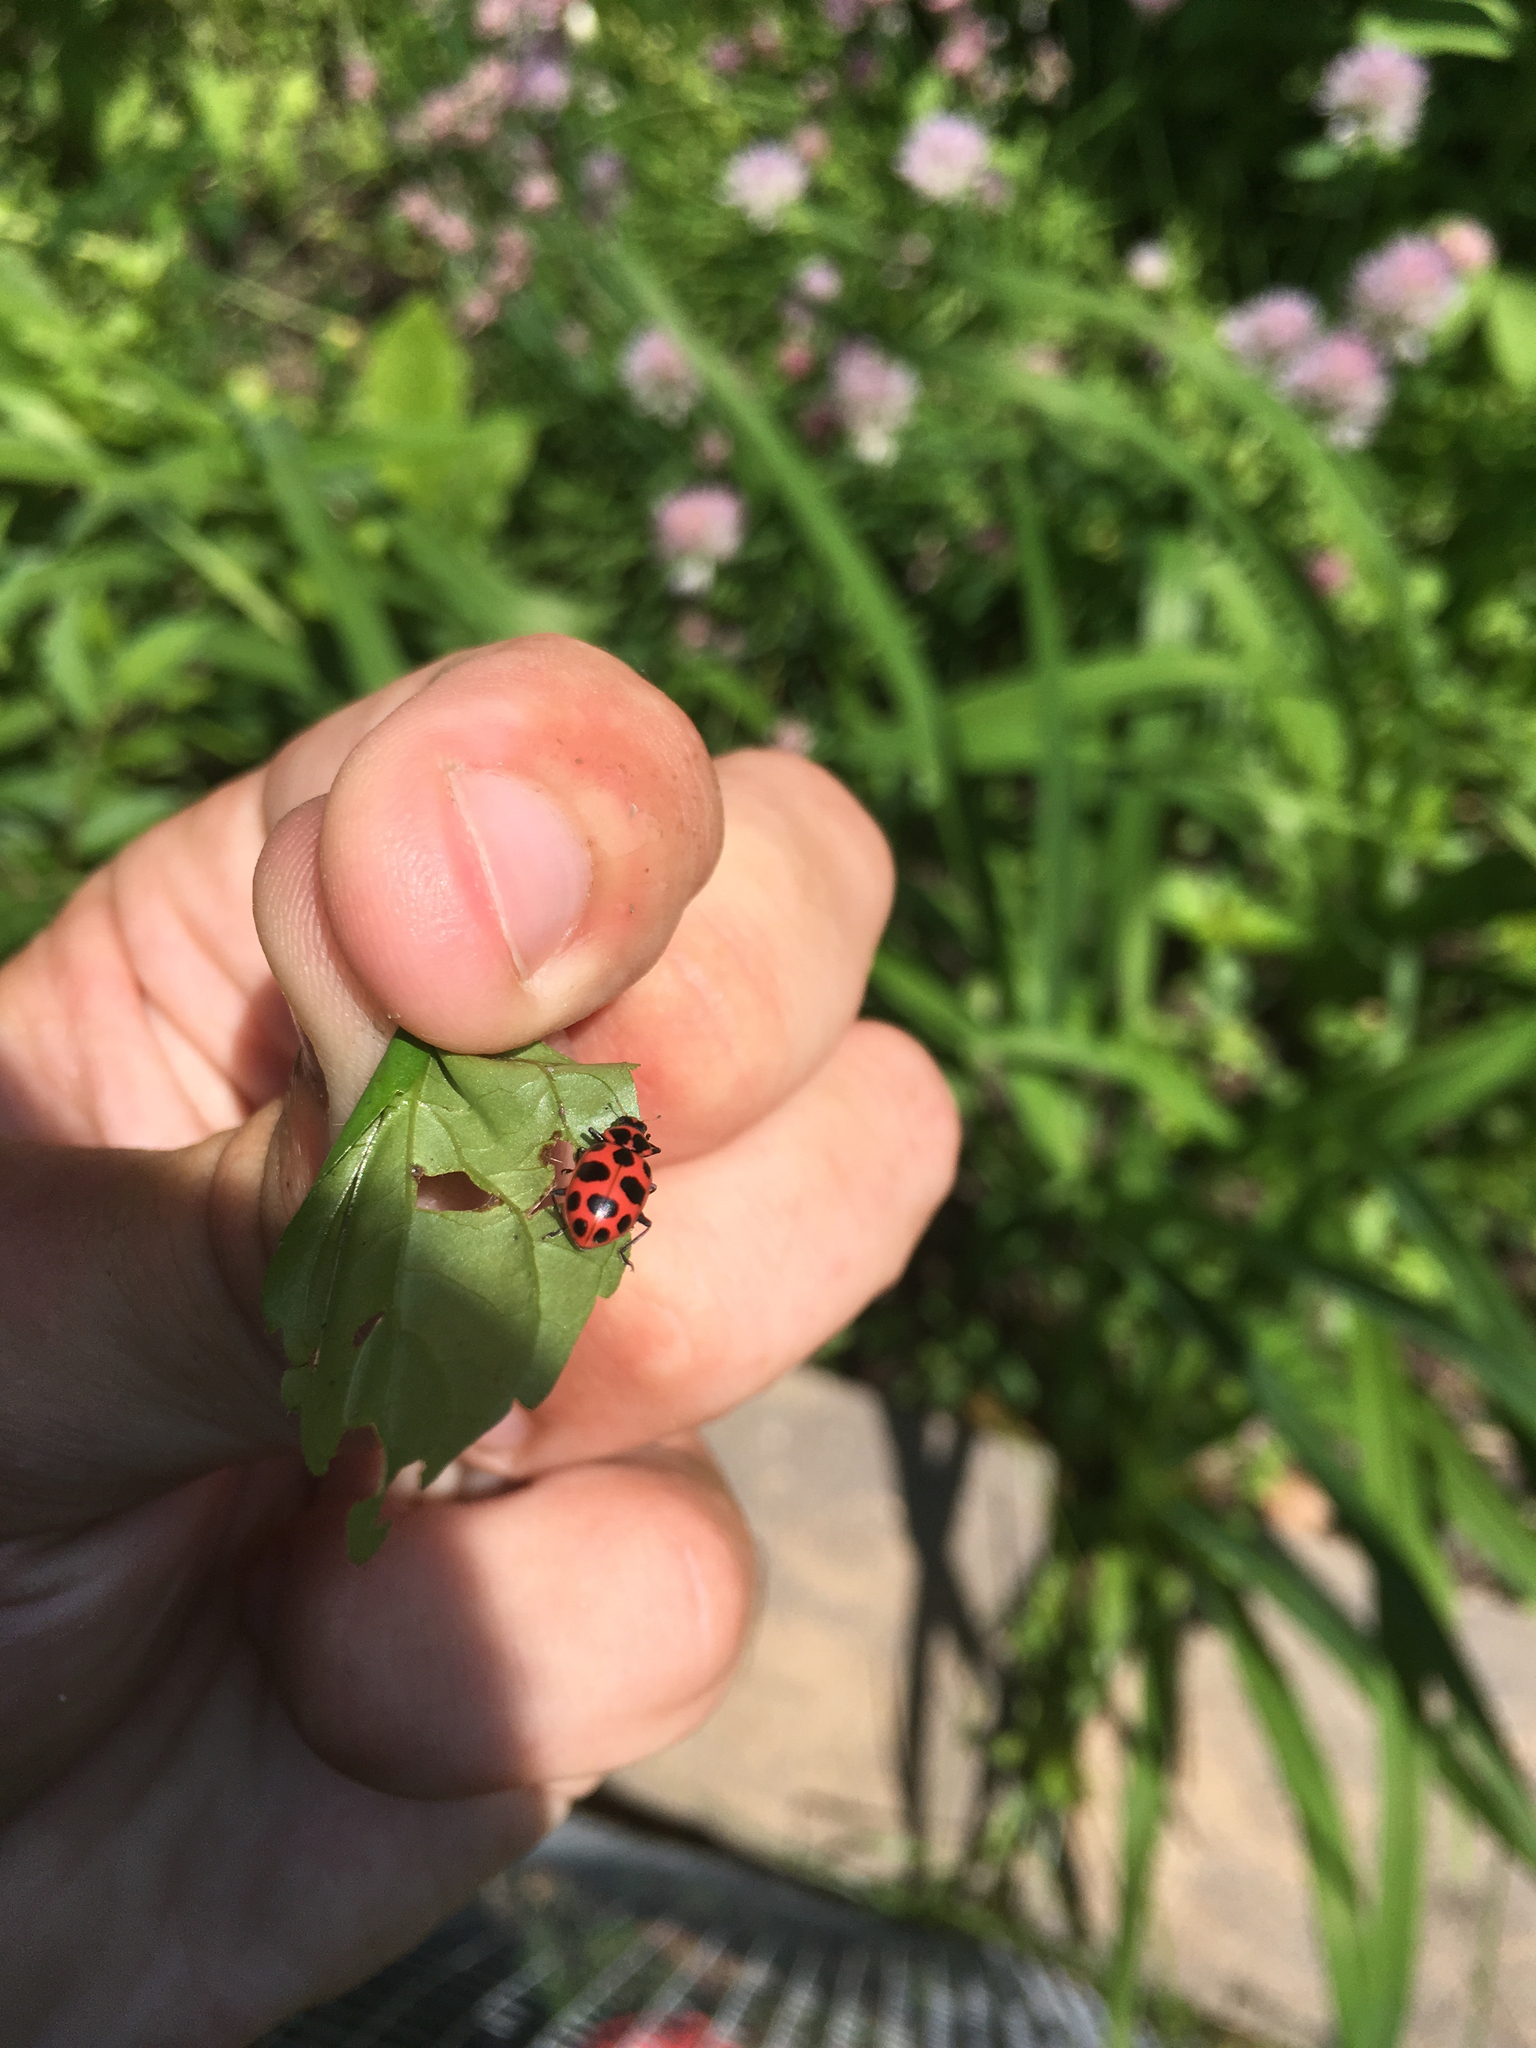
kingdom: Animalia
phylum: Arthropoda
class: Insecta
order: Coleoptera
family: Coccinellidae
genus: Coleomegilla
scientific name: Coleomegilla maculata
